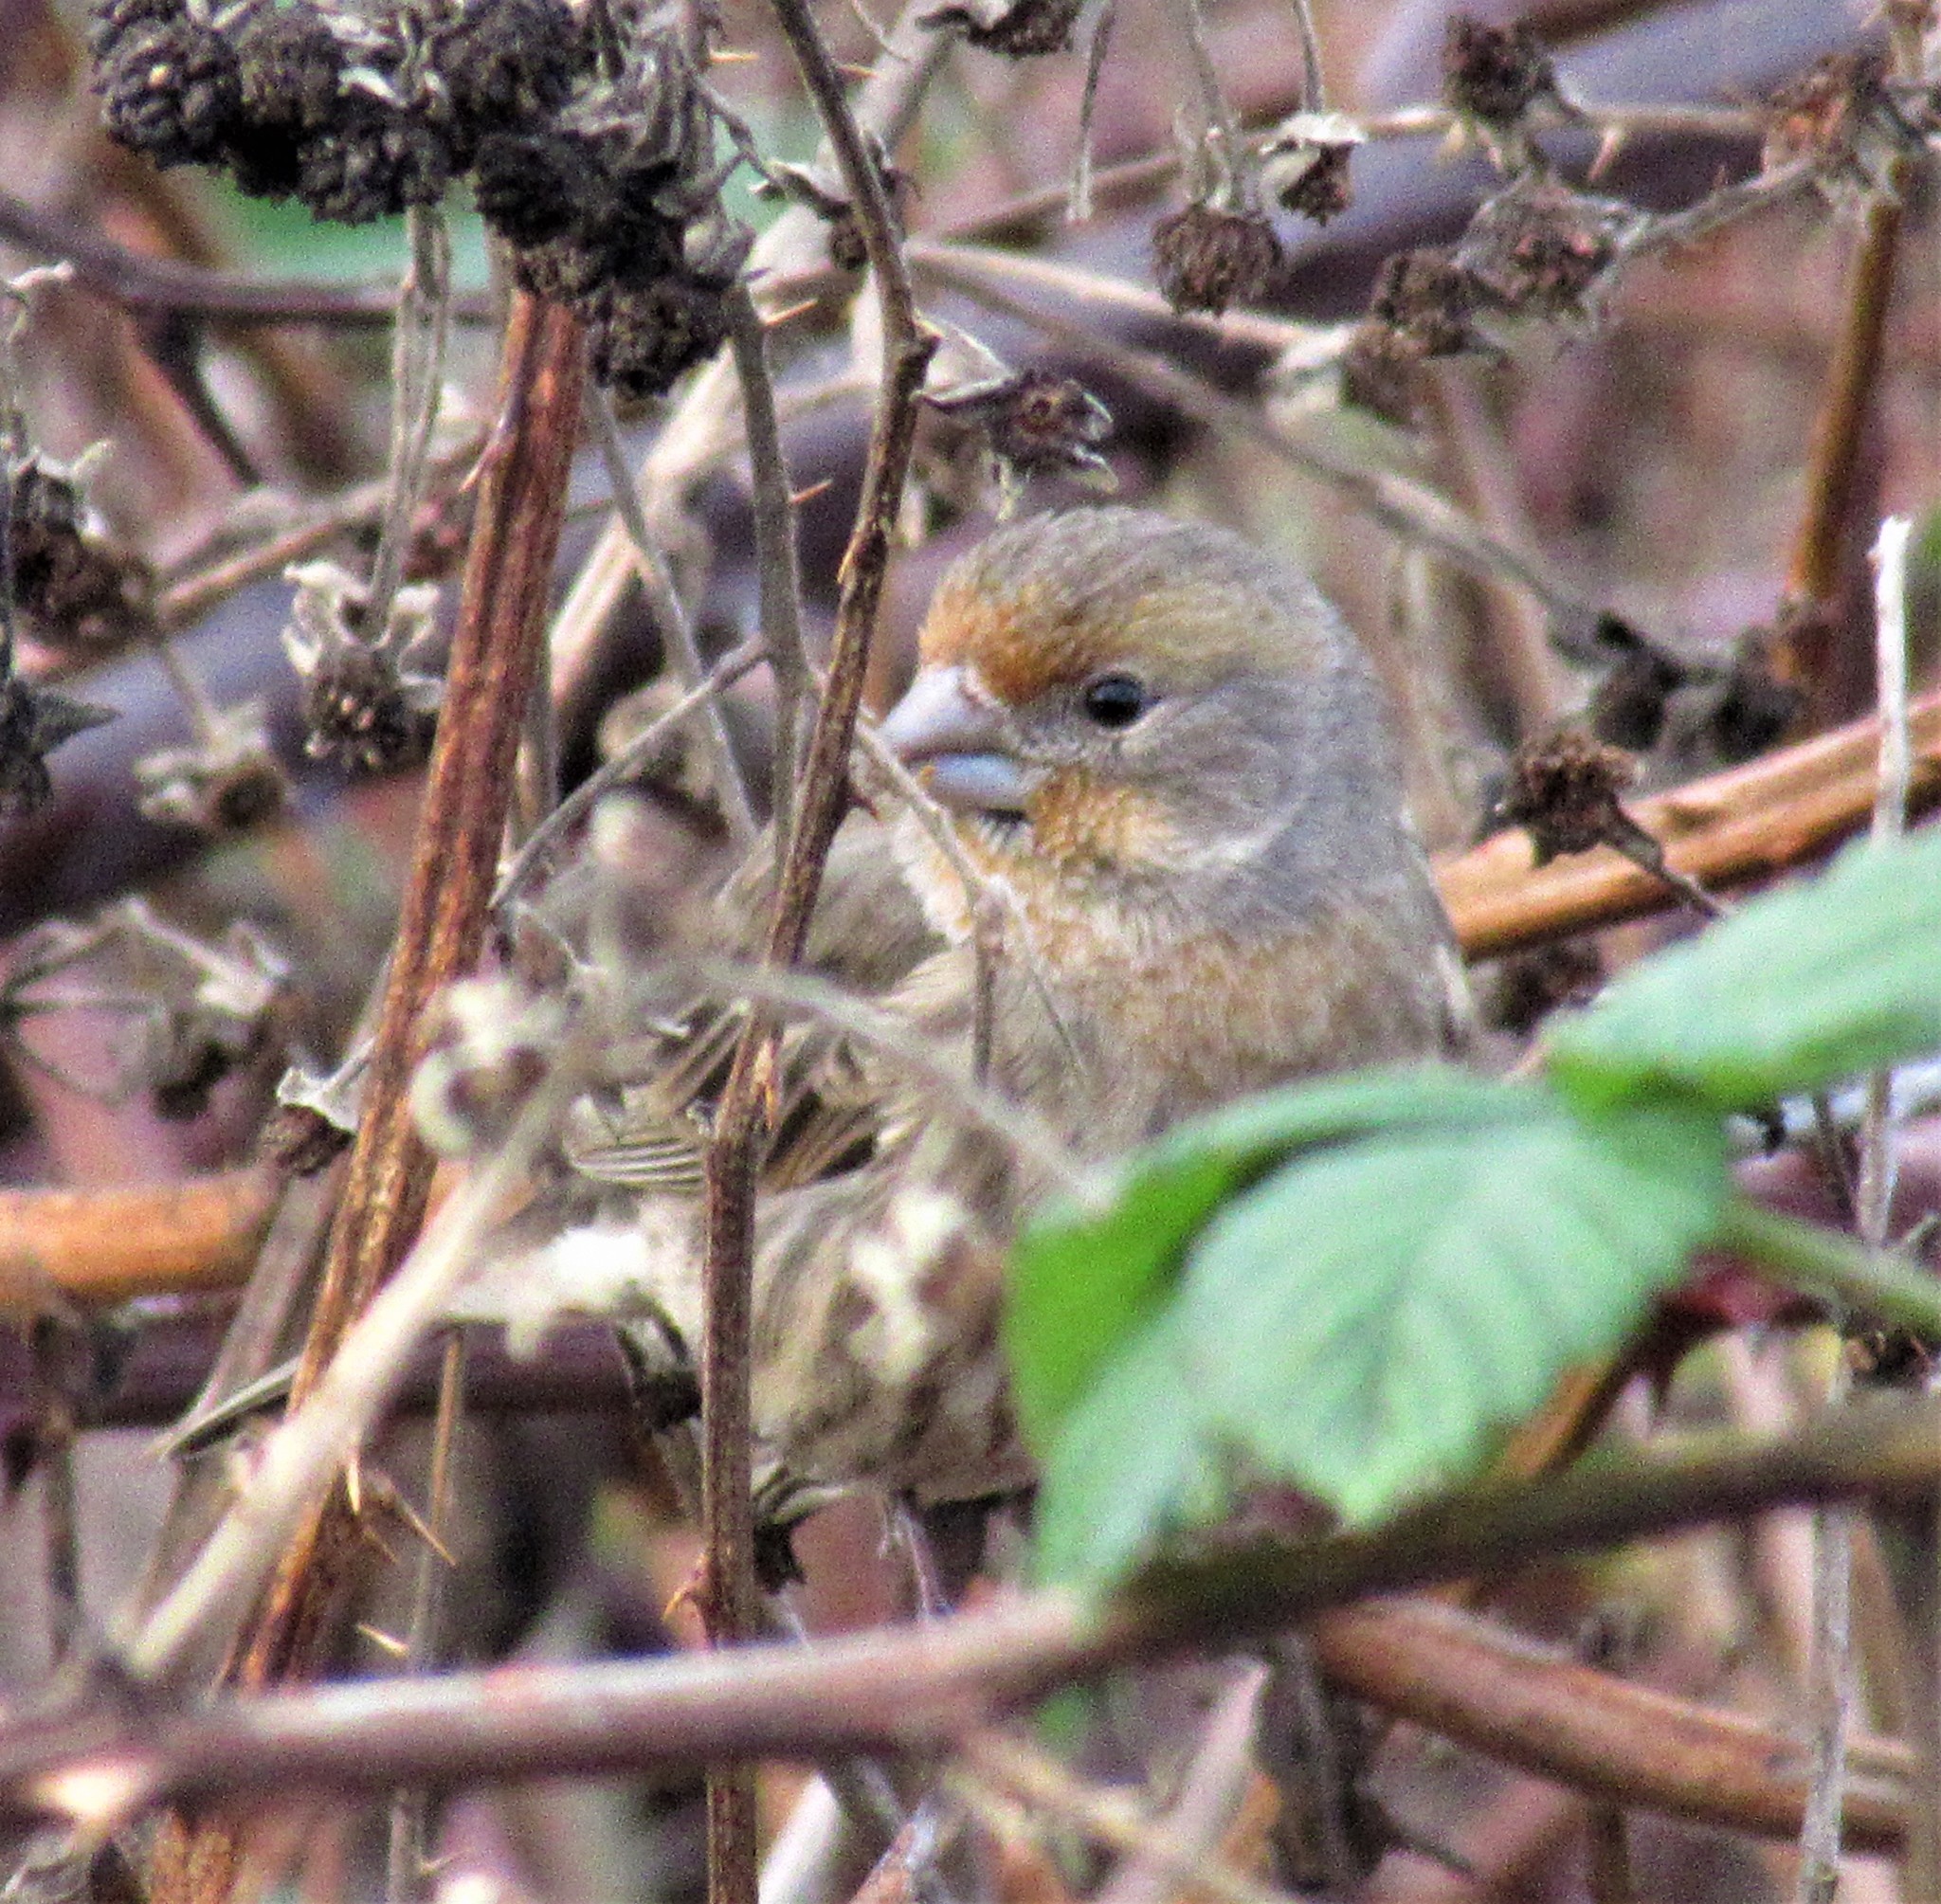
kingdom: Animalia
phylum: Chordata
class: Aves
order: Passeriformes
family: Fringillidae
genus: Haemorhous
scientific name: Haemorhous mexicanus
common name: House finch
